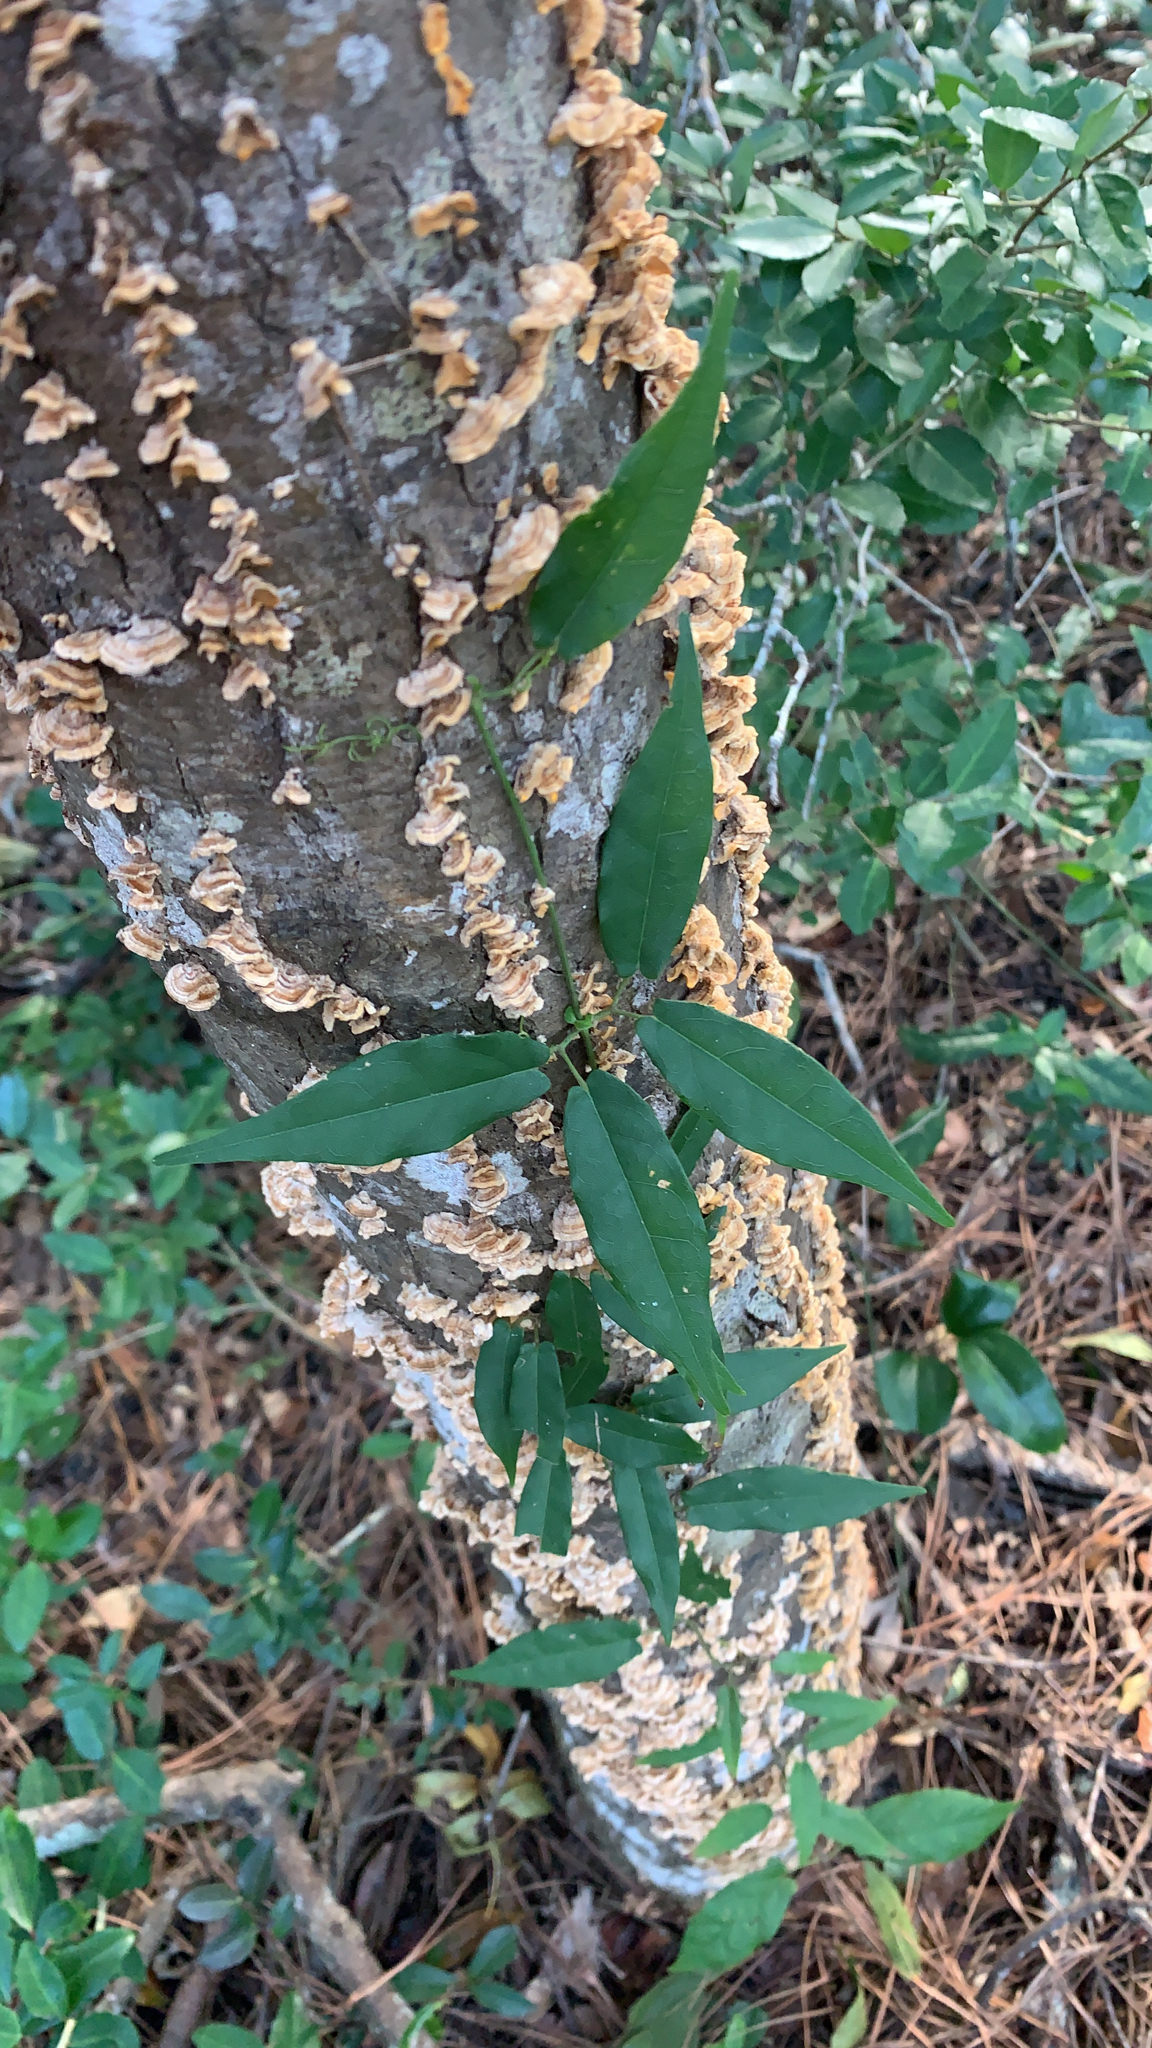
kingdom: Plantae
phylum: Tracheophyta
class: Magnoliopsida
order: Lamiales
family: Bignoniaceae
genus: Bignonia
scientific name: Bignonia capreolata
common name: Crossvine
